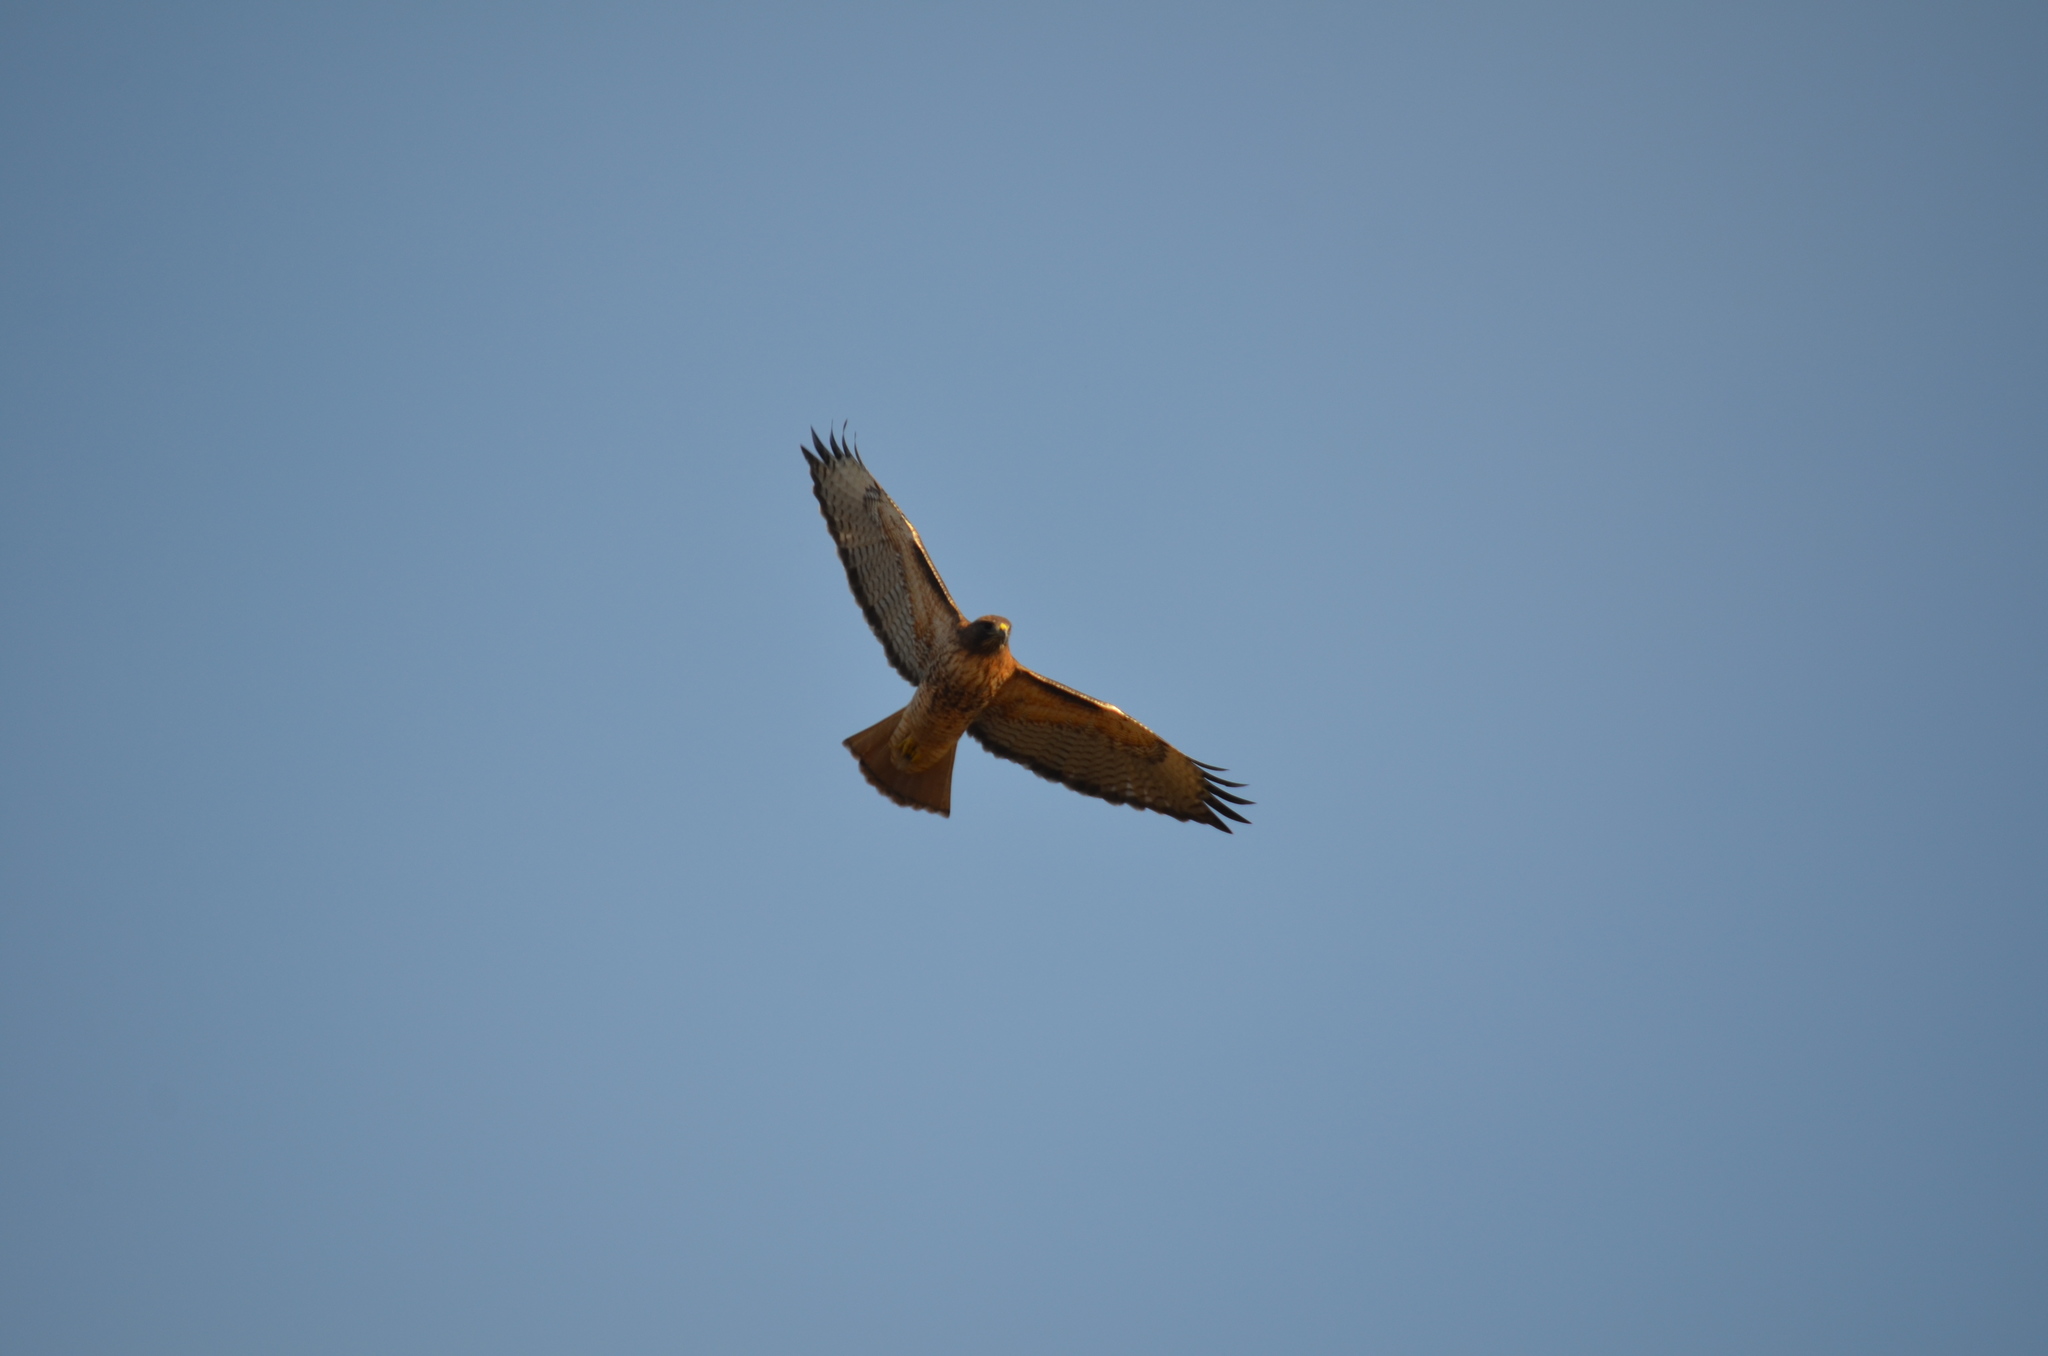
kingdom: Animalia
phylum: Chordata
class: Aves
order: Accipitriformes
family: Accipitridae
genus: Buteo
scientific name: Buteo jamaicensis
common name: Red-tailed hawk
